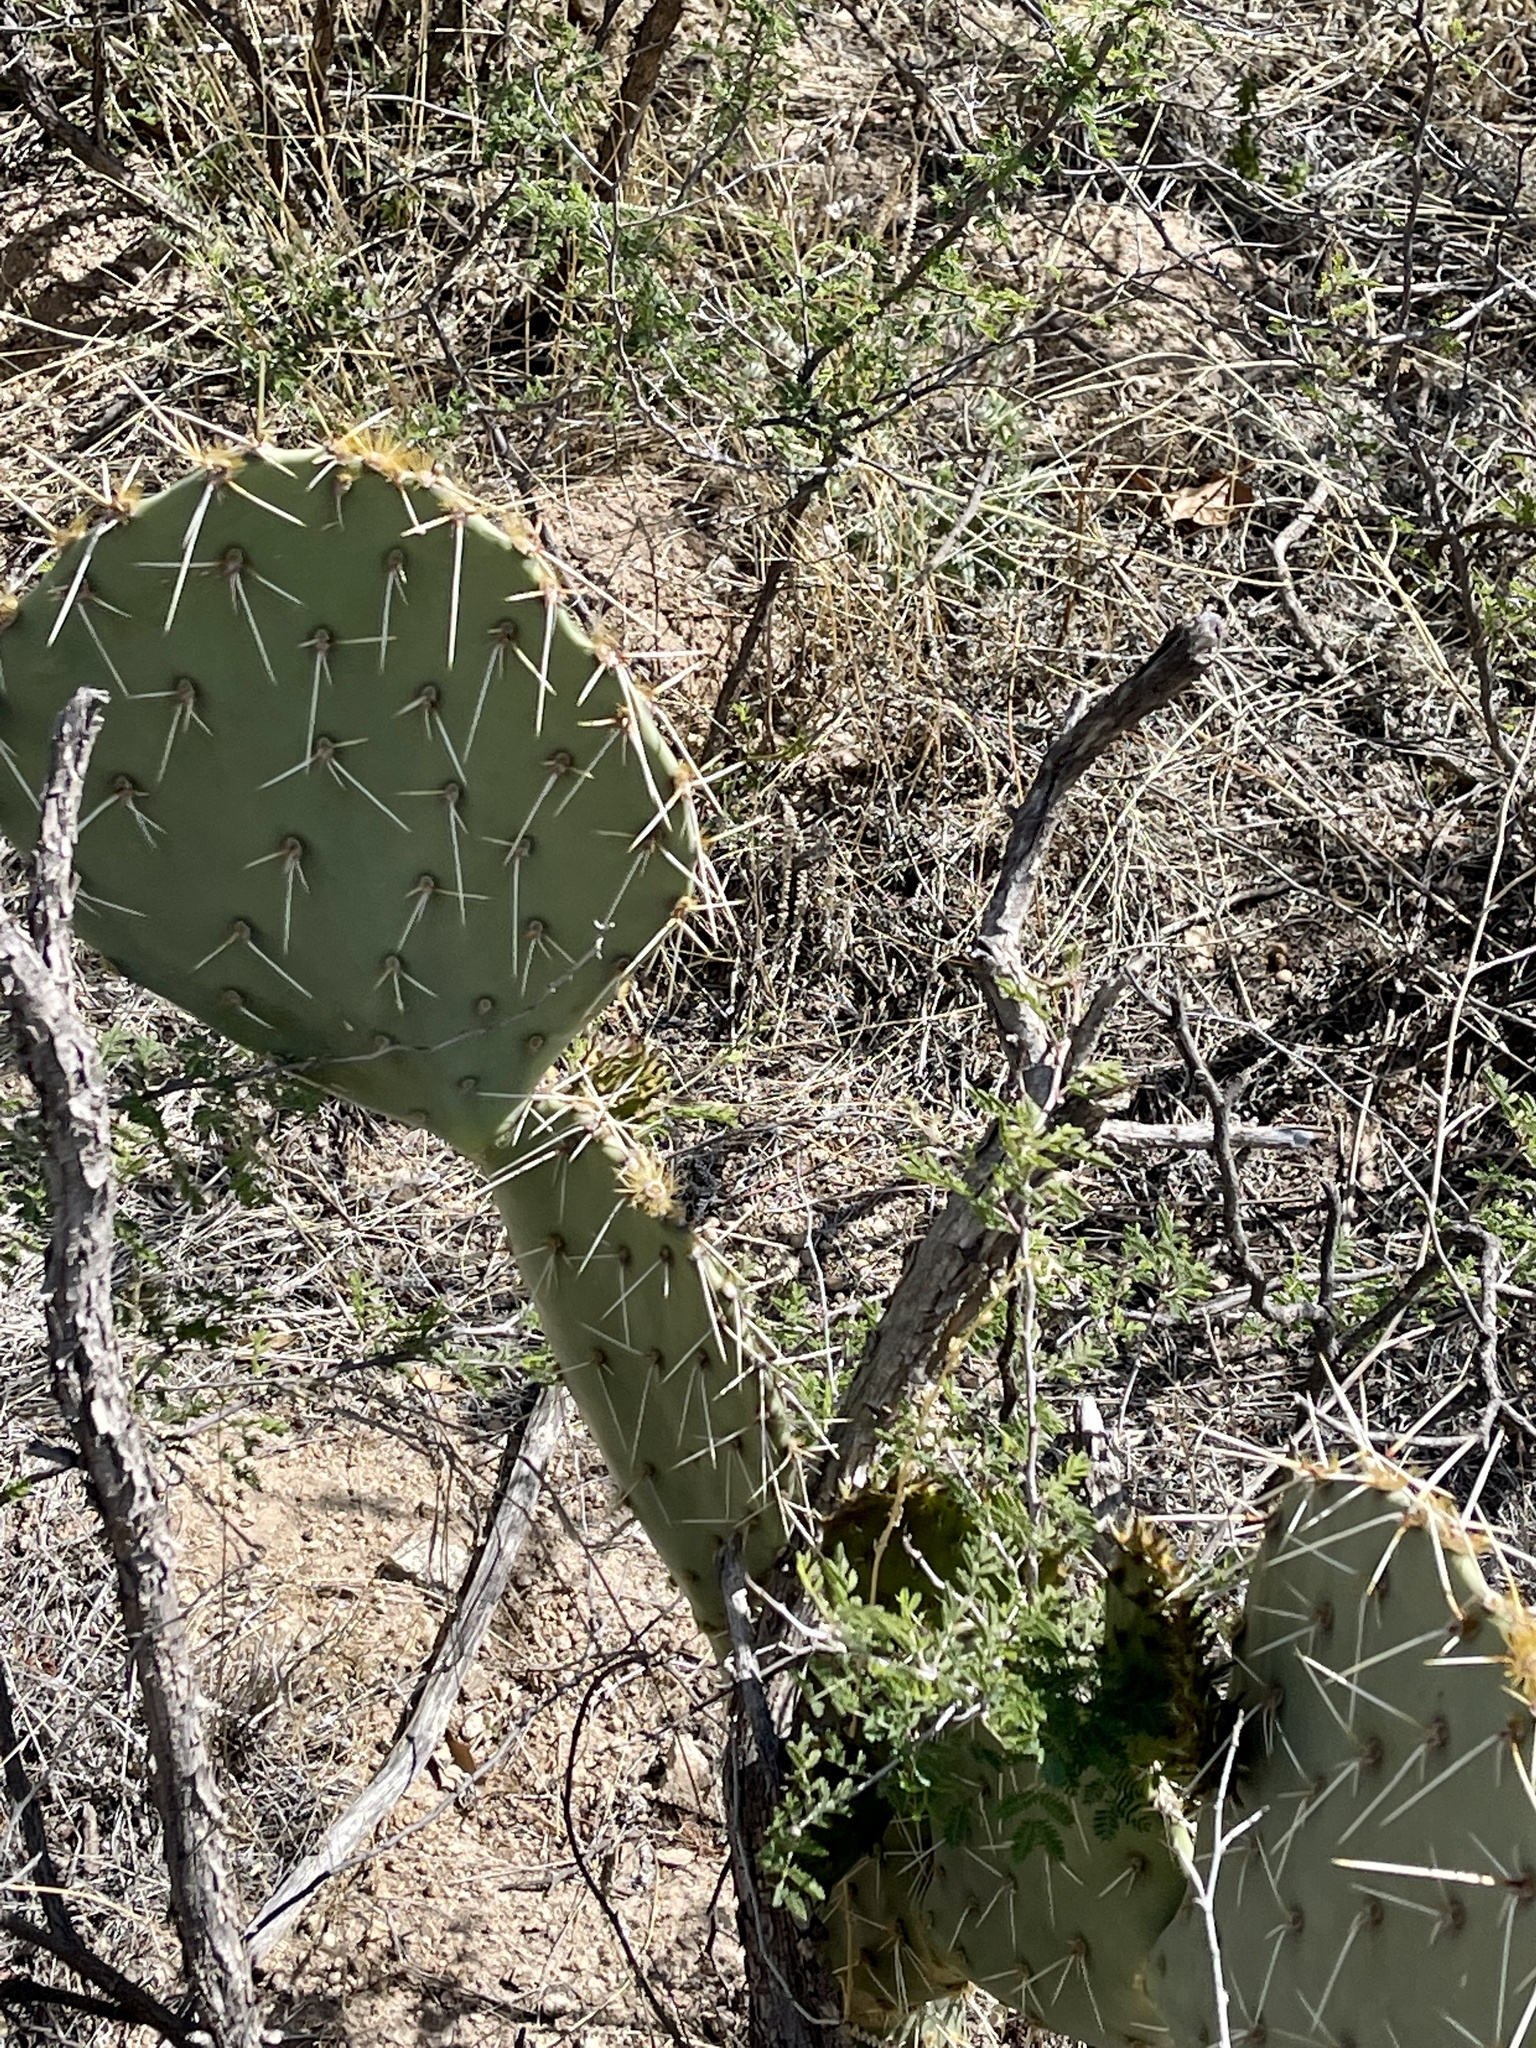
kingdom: Plantae
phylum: Tracheophyta
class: Magnoliopsida
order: Caryophyllales
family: Cactaceae
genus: Opuntia
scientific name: Opuntia engelmannii
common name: Cactus-apple
